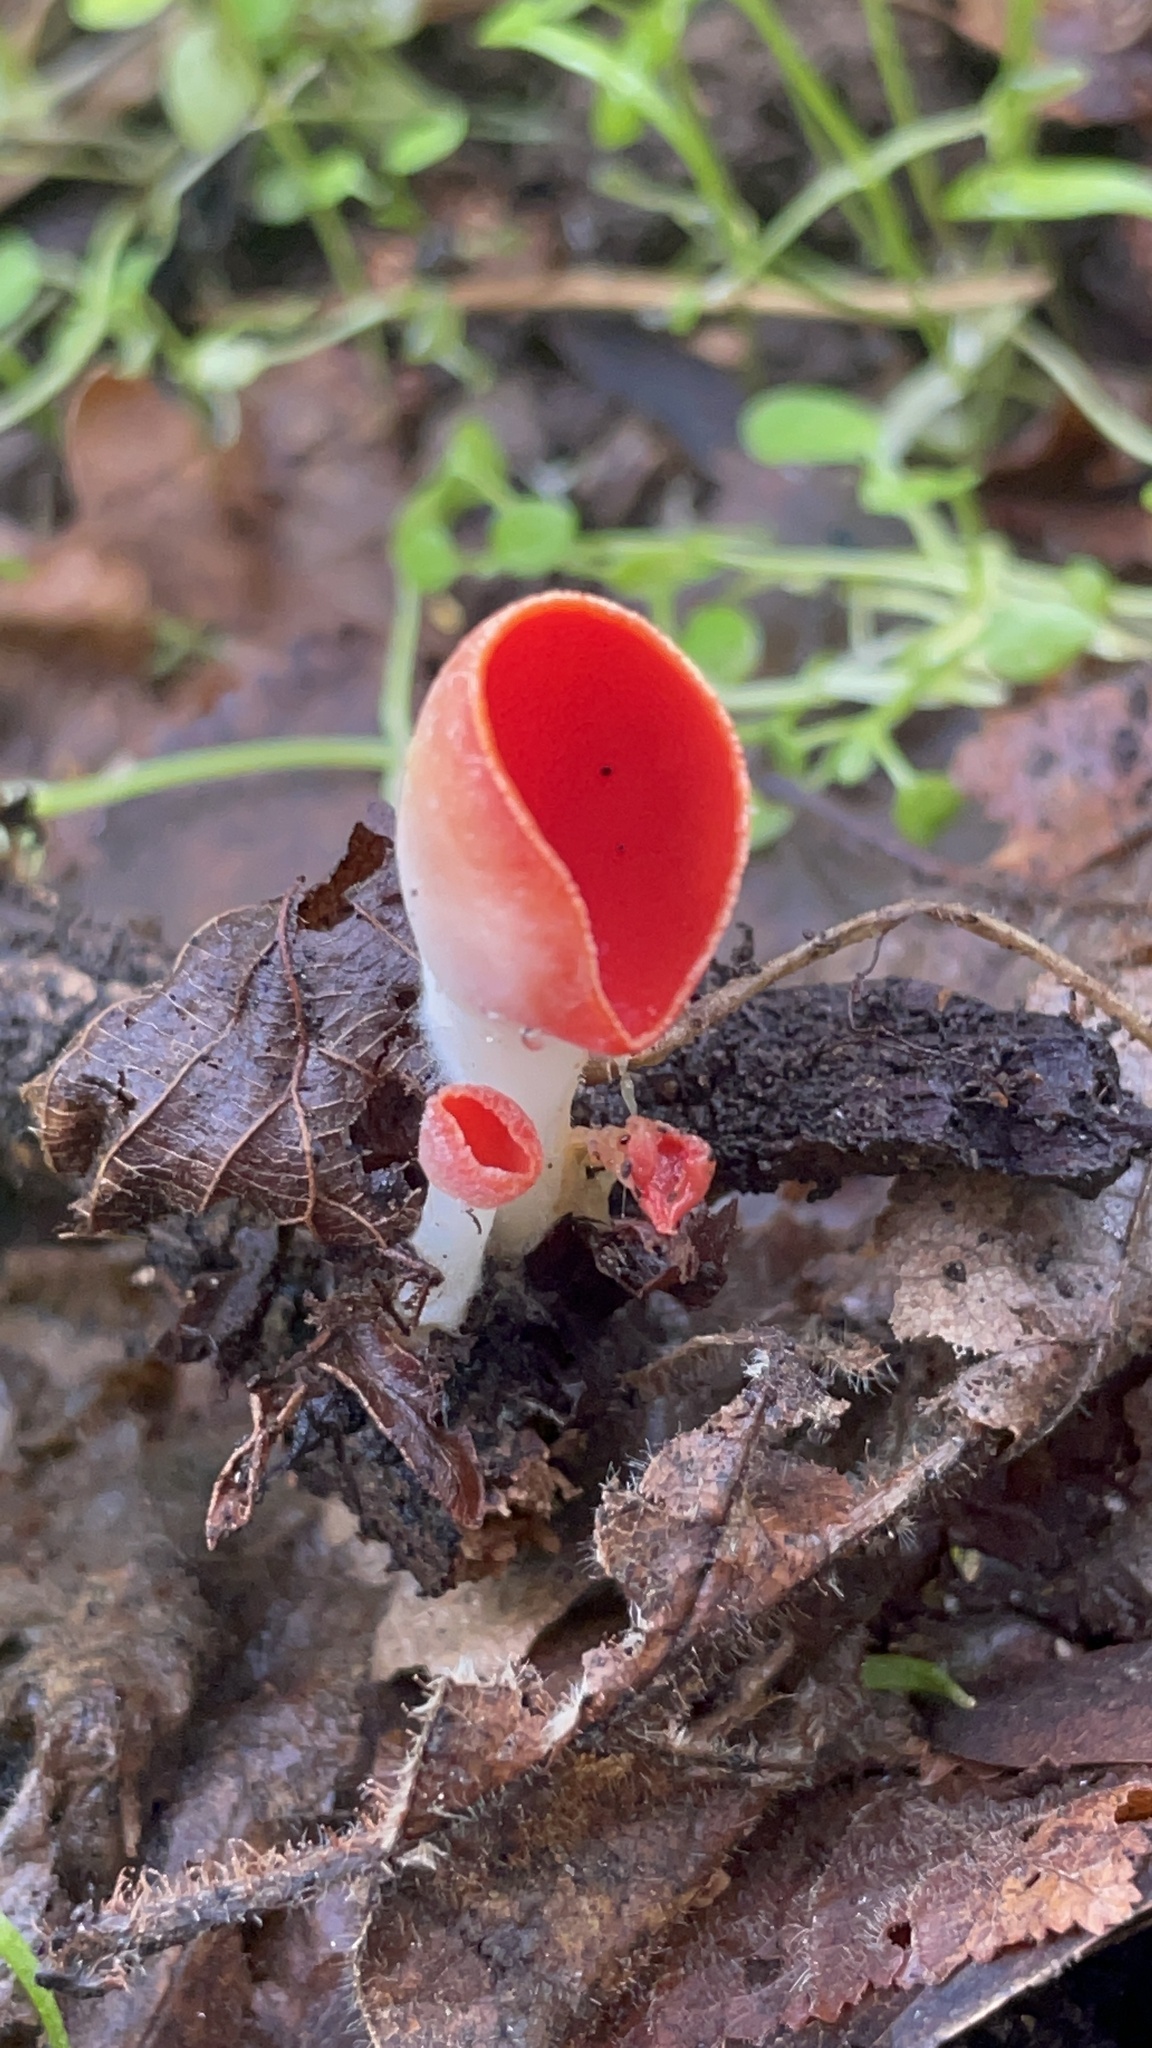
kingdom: Fungi
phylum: Ascomycota
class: Pezizomycetes
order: Pezizales
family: Sarcoscyphaceae
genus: Sarcoscypha
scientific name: Sarcoscypha occidentalis
